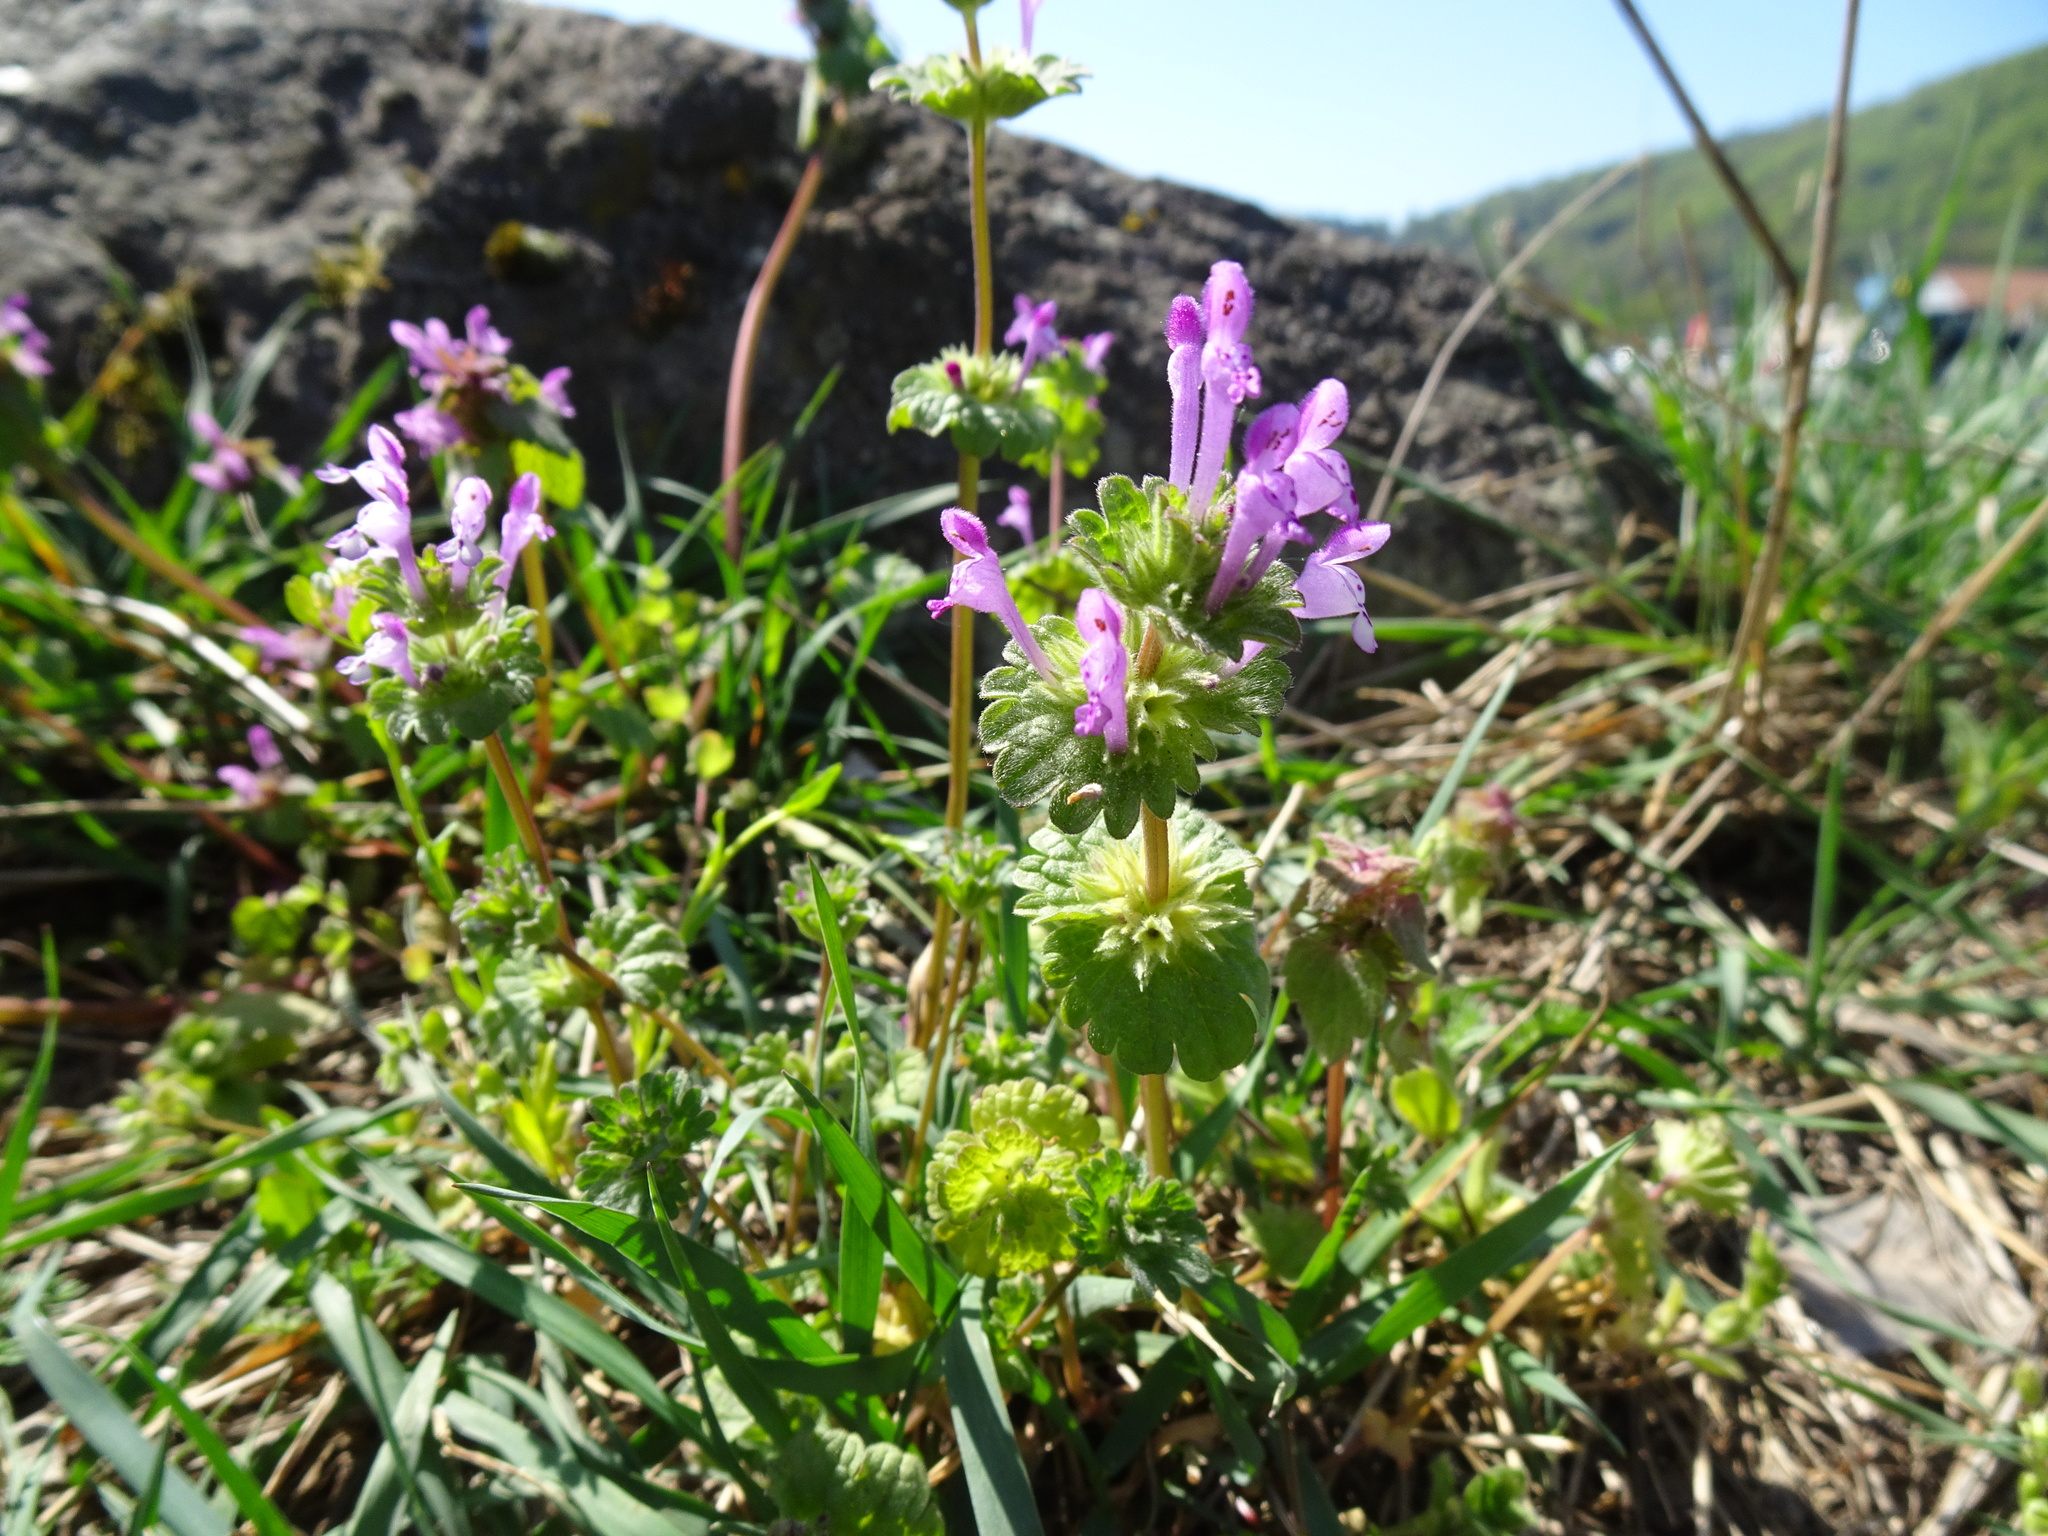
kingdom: Plantae
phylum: Tracheophyta
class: Magnoliopsida
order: Lamiales
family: Lamiaceae
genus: Lamium
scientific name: Lamium amplexicaule
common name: Henbit dead-nettle
